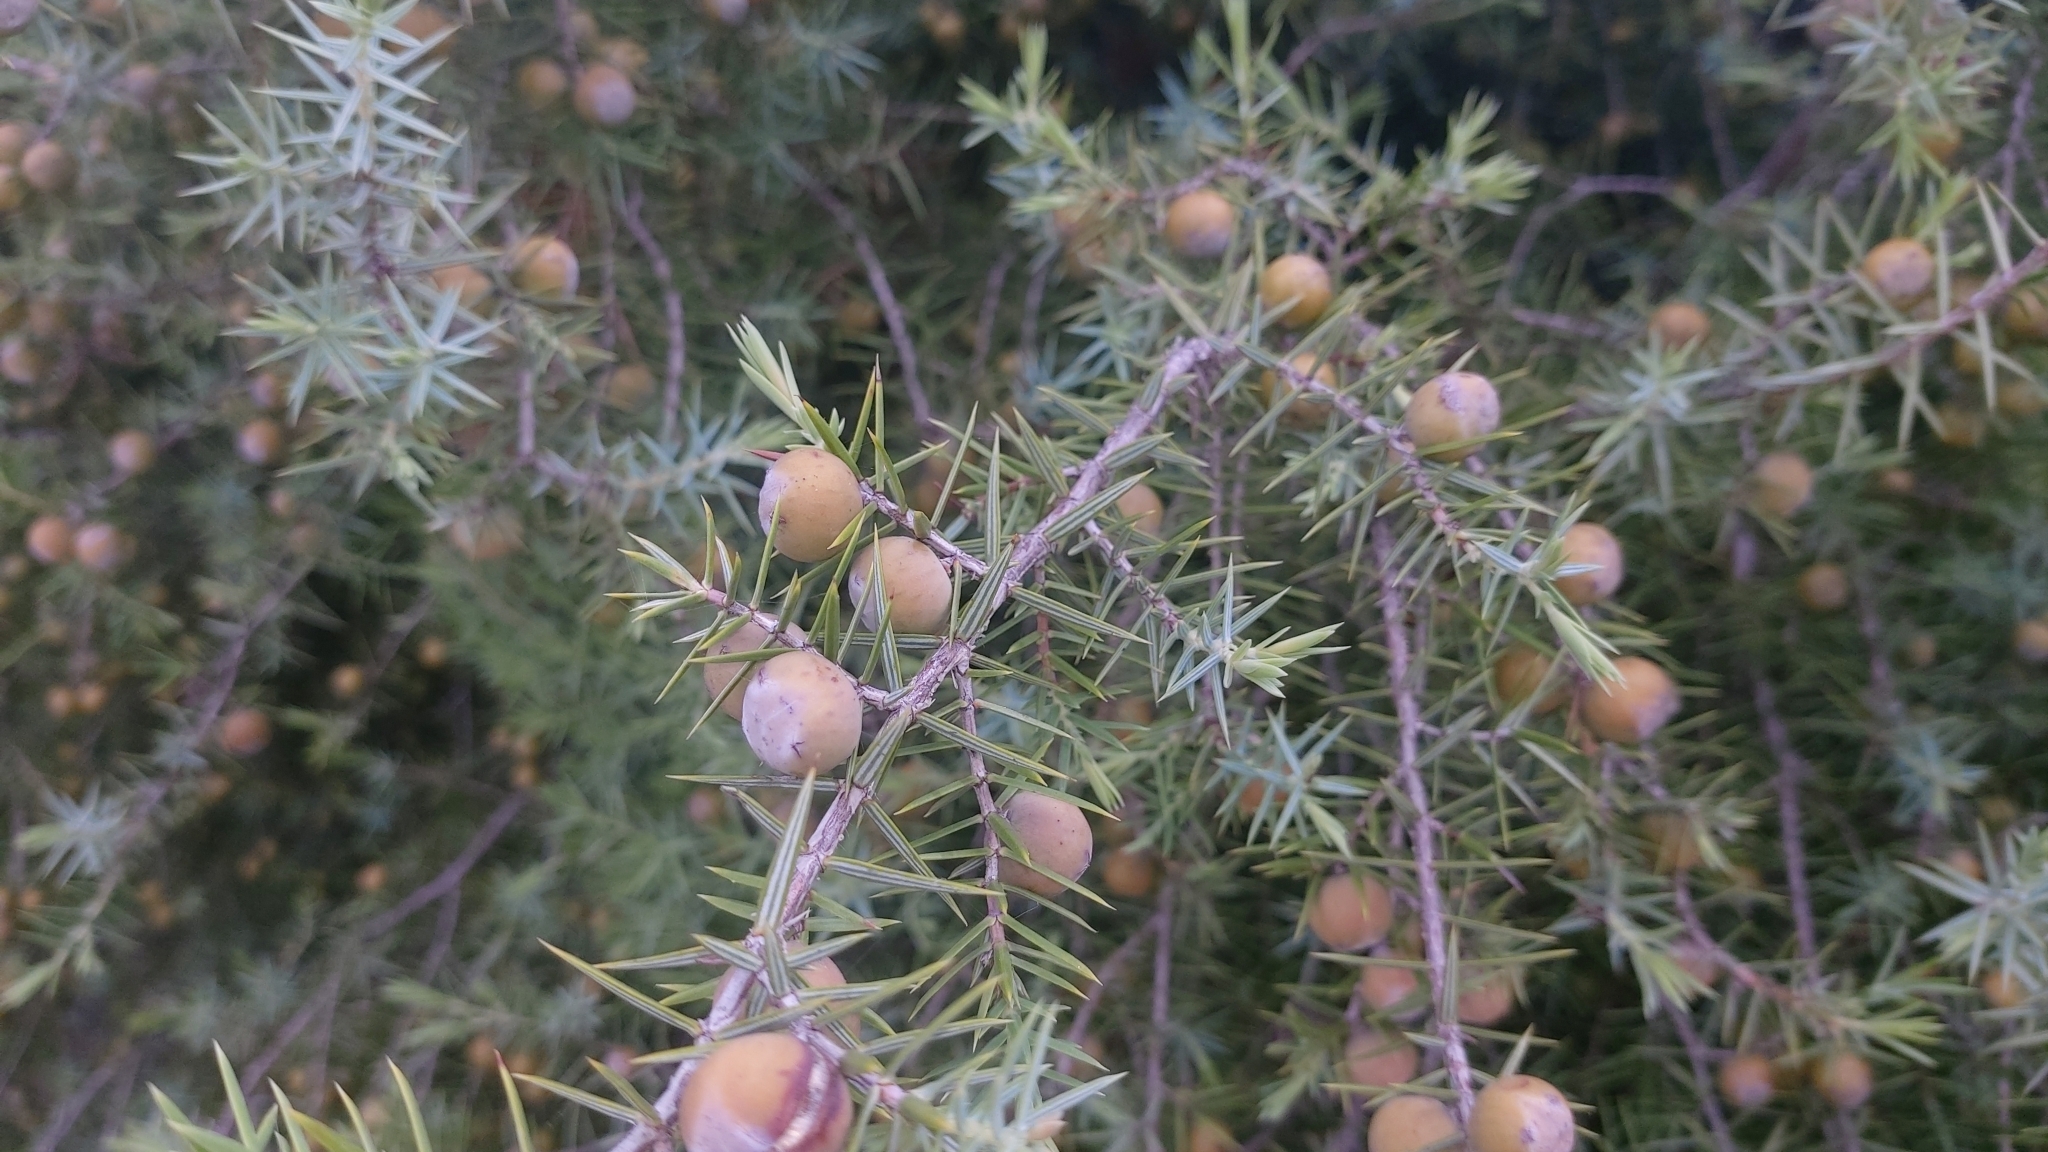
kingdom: Plantae
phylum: Tracheophyta
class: Pinopsida
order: Pinales
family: Cupressaceae
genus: Juniperus
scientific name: Juniperus oxycedrus
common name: Prickly juniper
